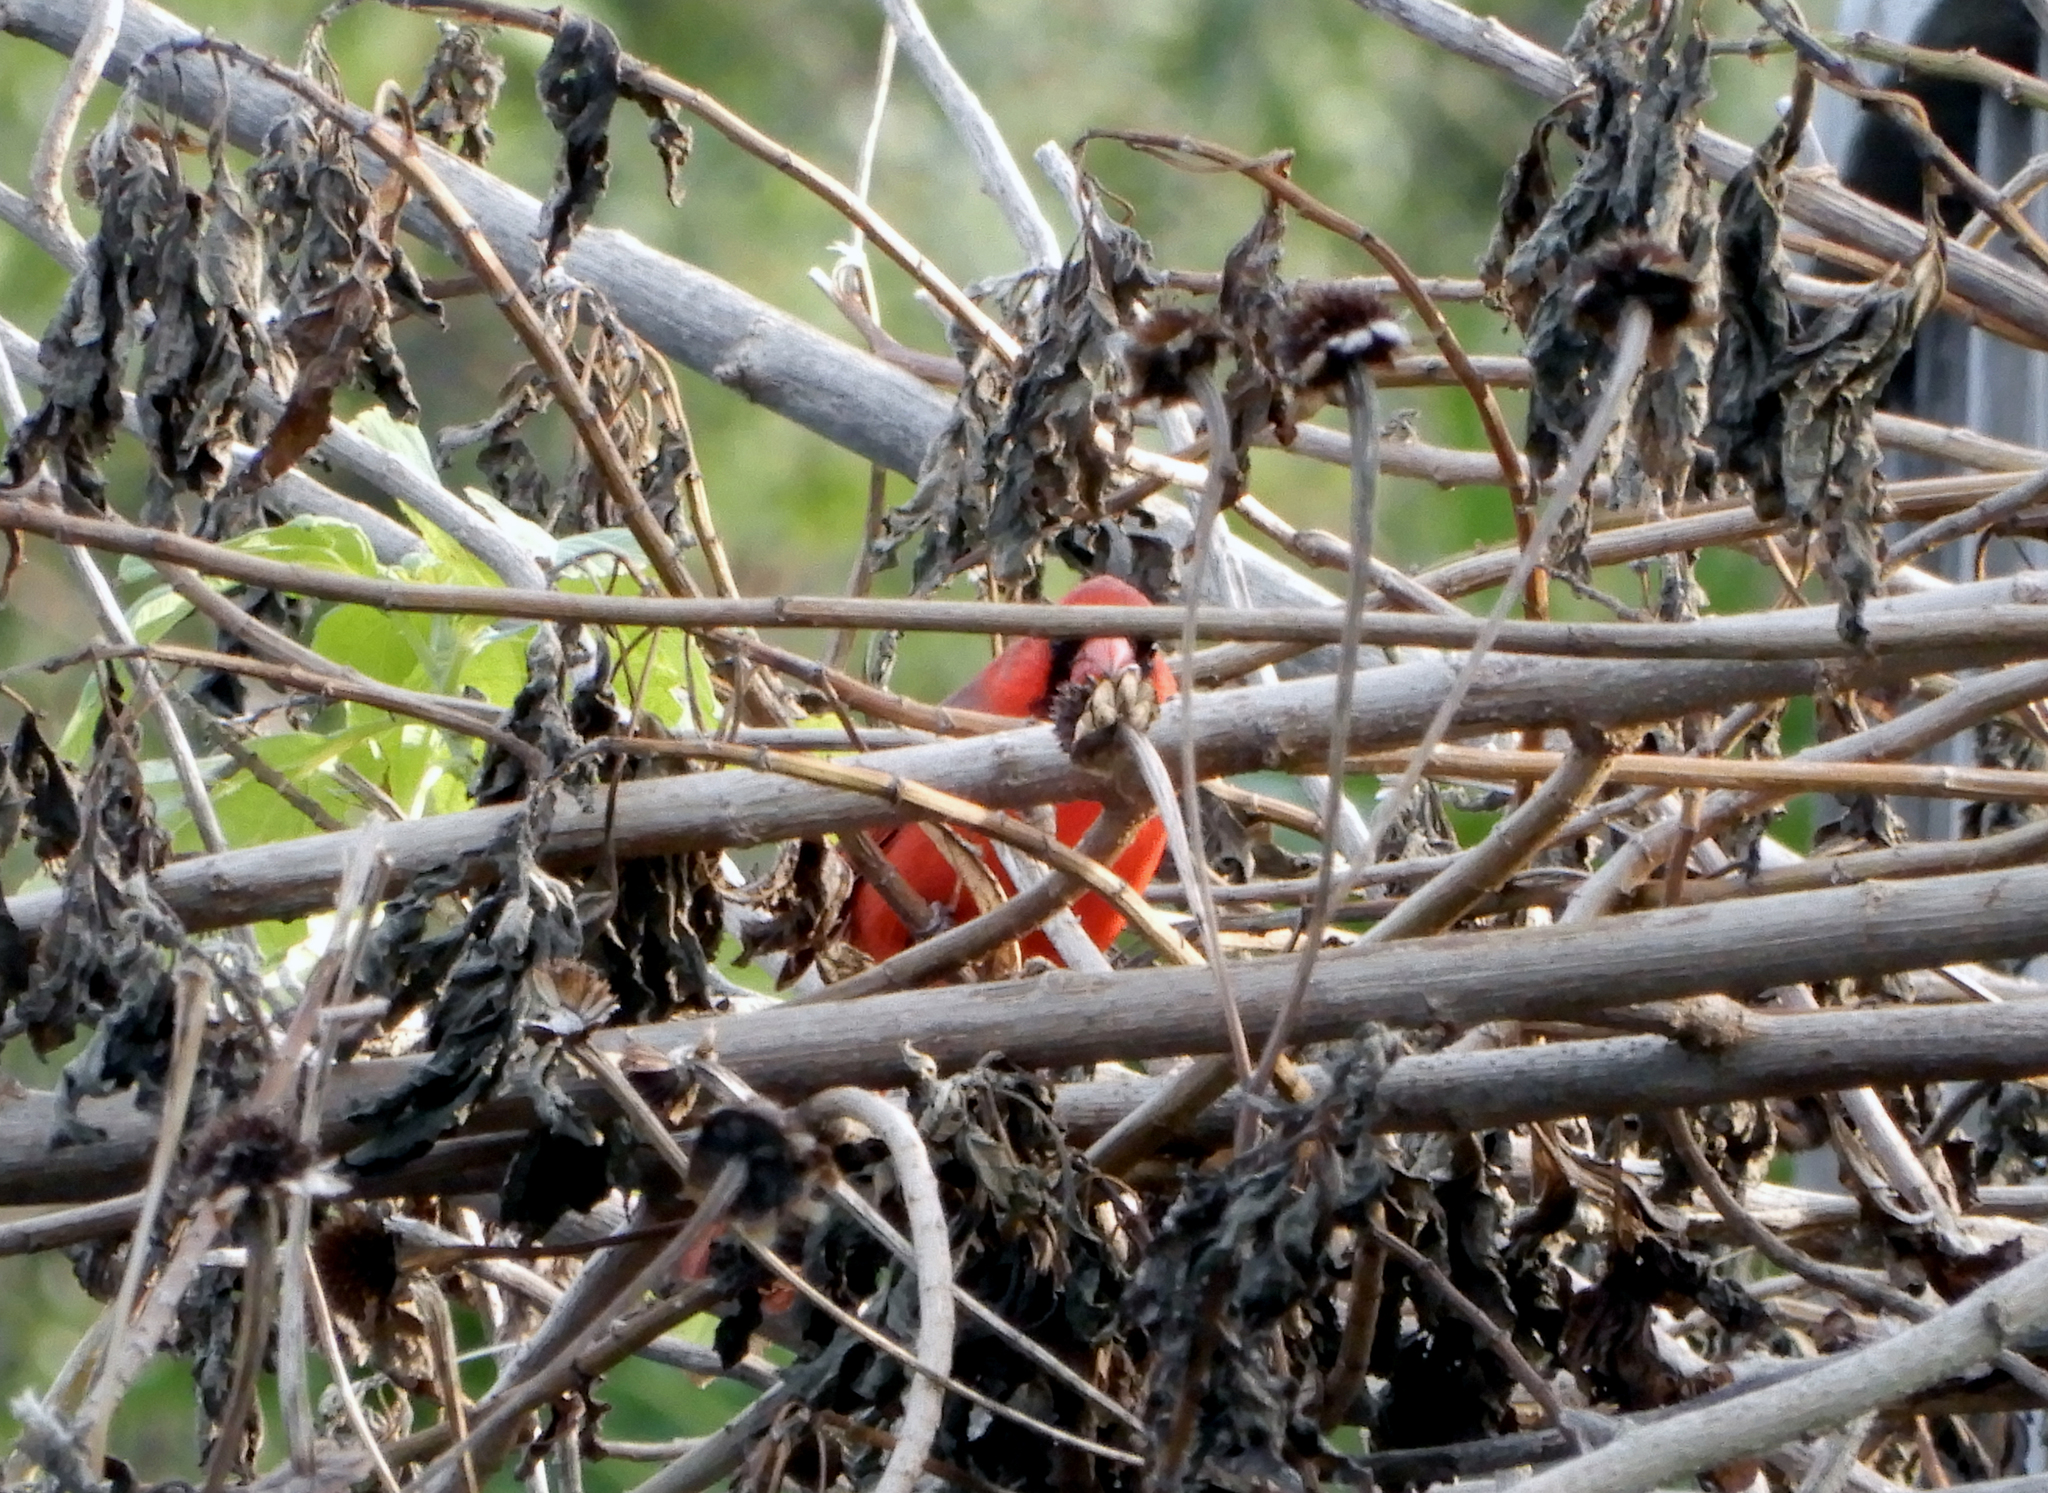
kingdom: Animalia
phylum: Chordata
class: Aves
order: Passeriformes
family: Cardinalidae
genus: Cardinalis
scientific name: Cardinalis cardinalis
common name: Northern cardinal
